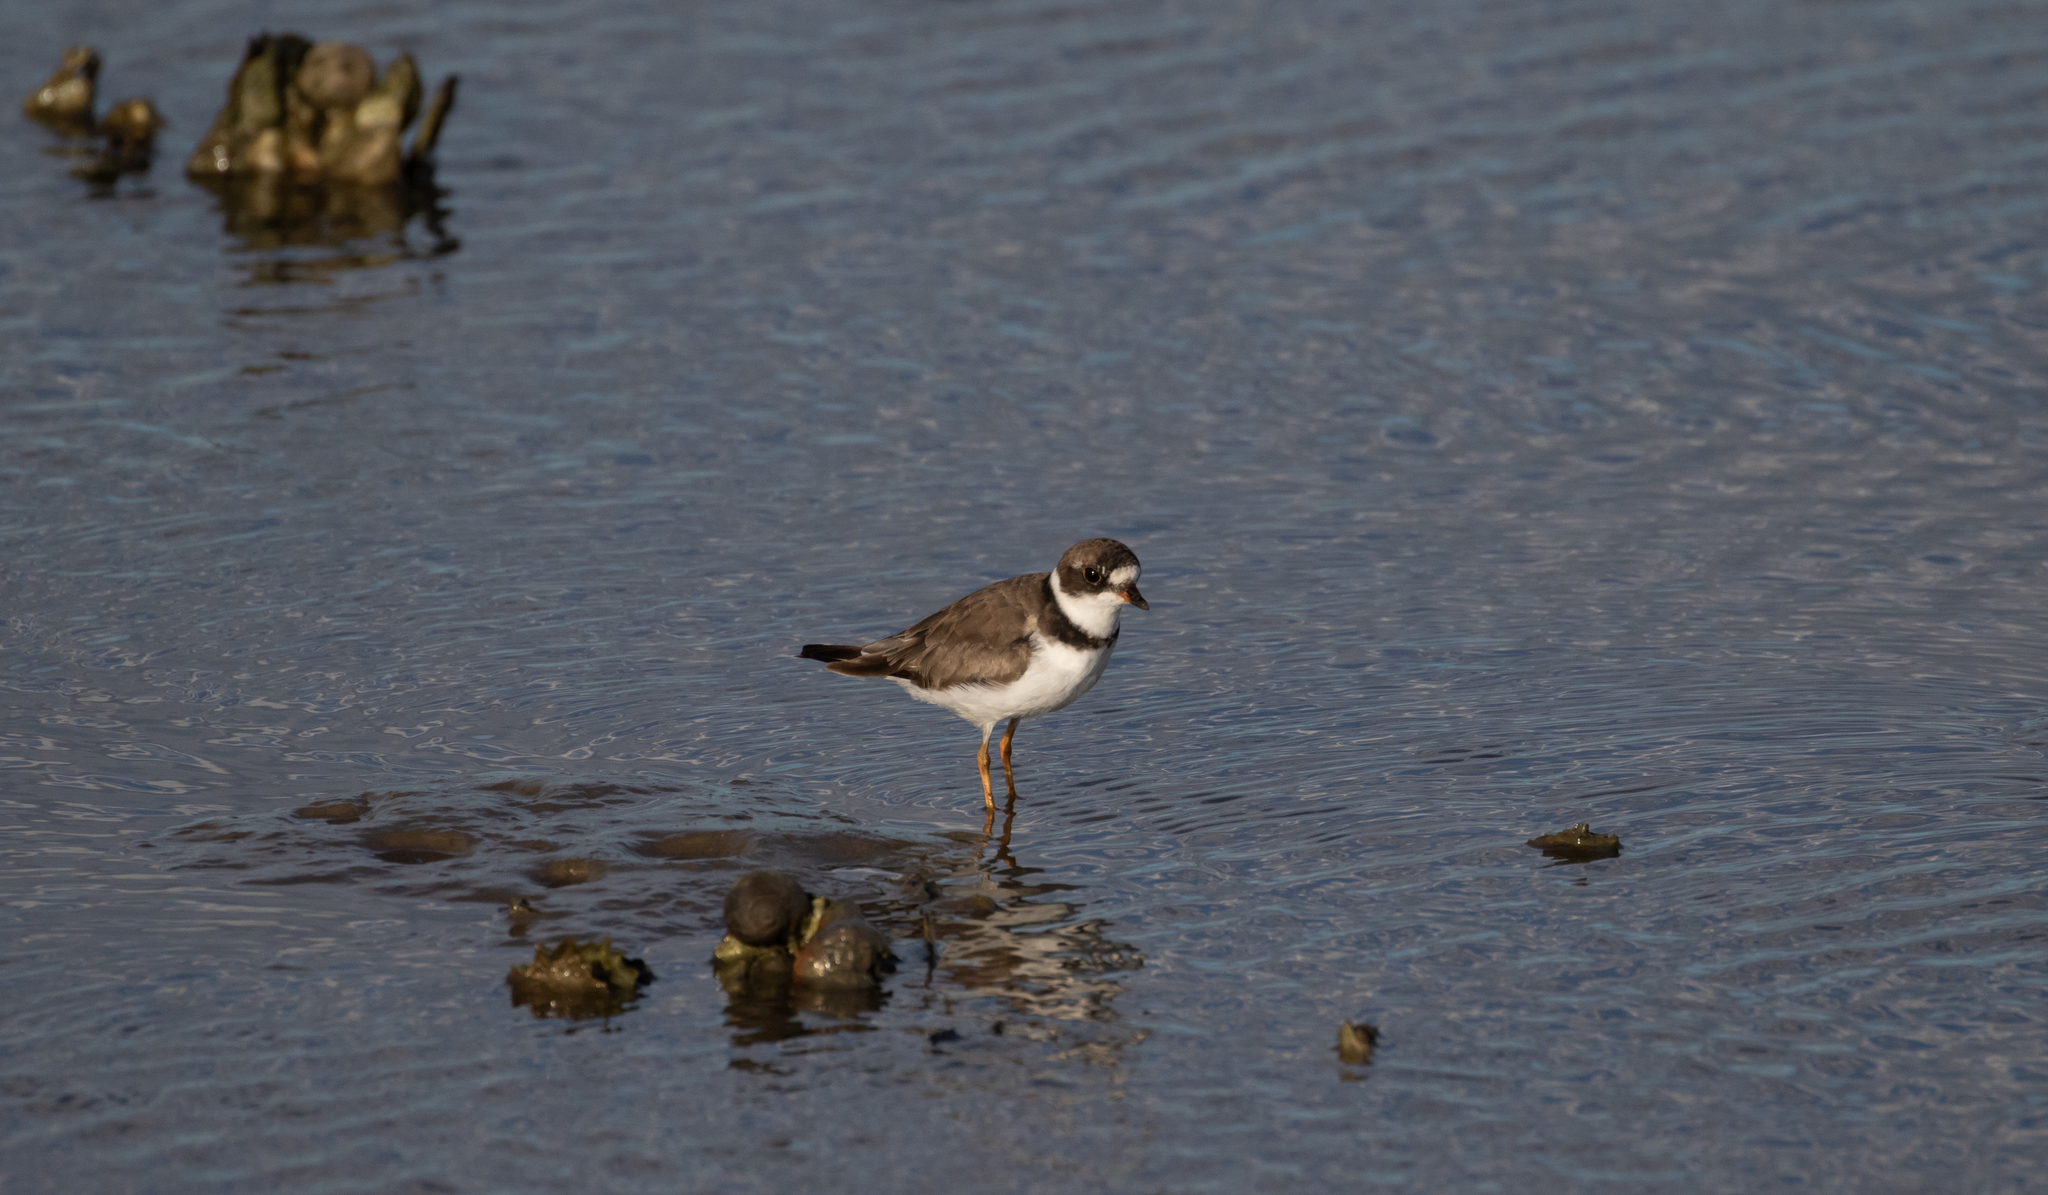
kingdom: Animalia
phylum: Chordata
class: Aves
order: Charadriiformes
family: Charadriidae
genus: Charadrius
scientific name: Charadrius semipalmatus
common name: Semipalmated plover
